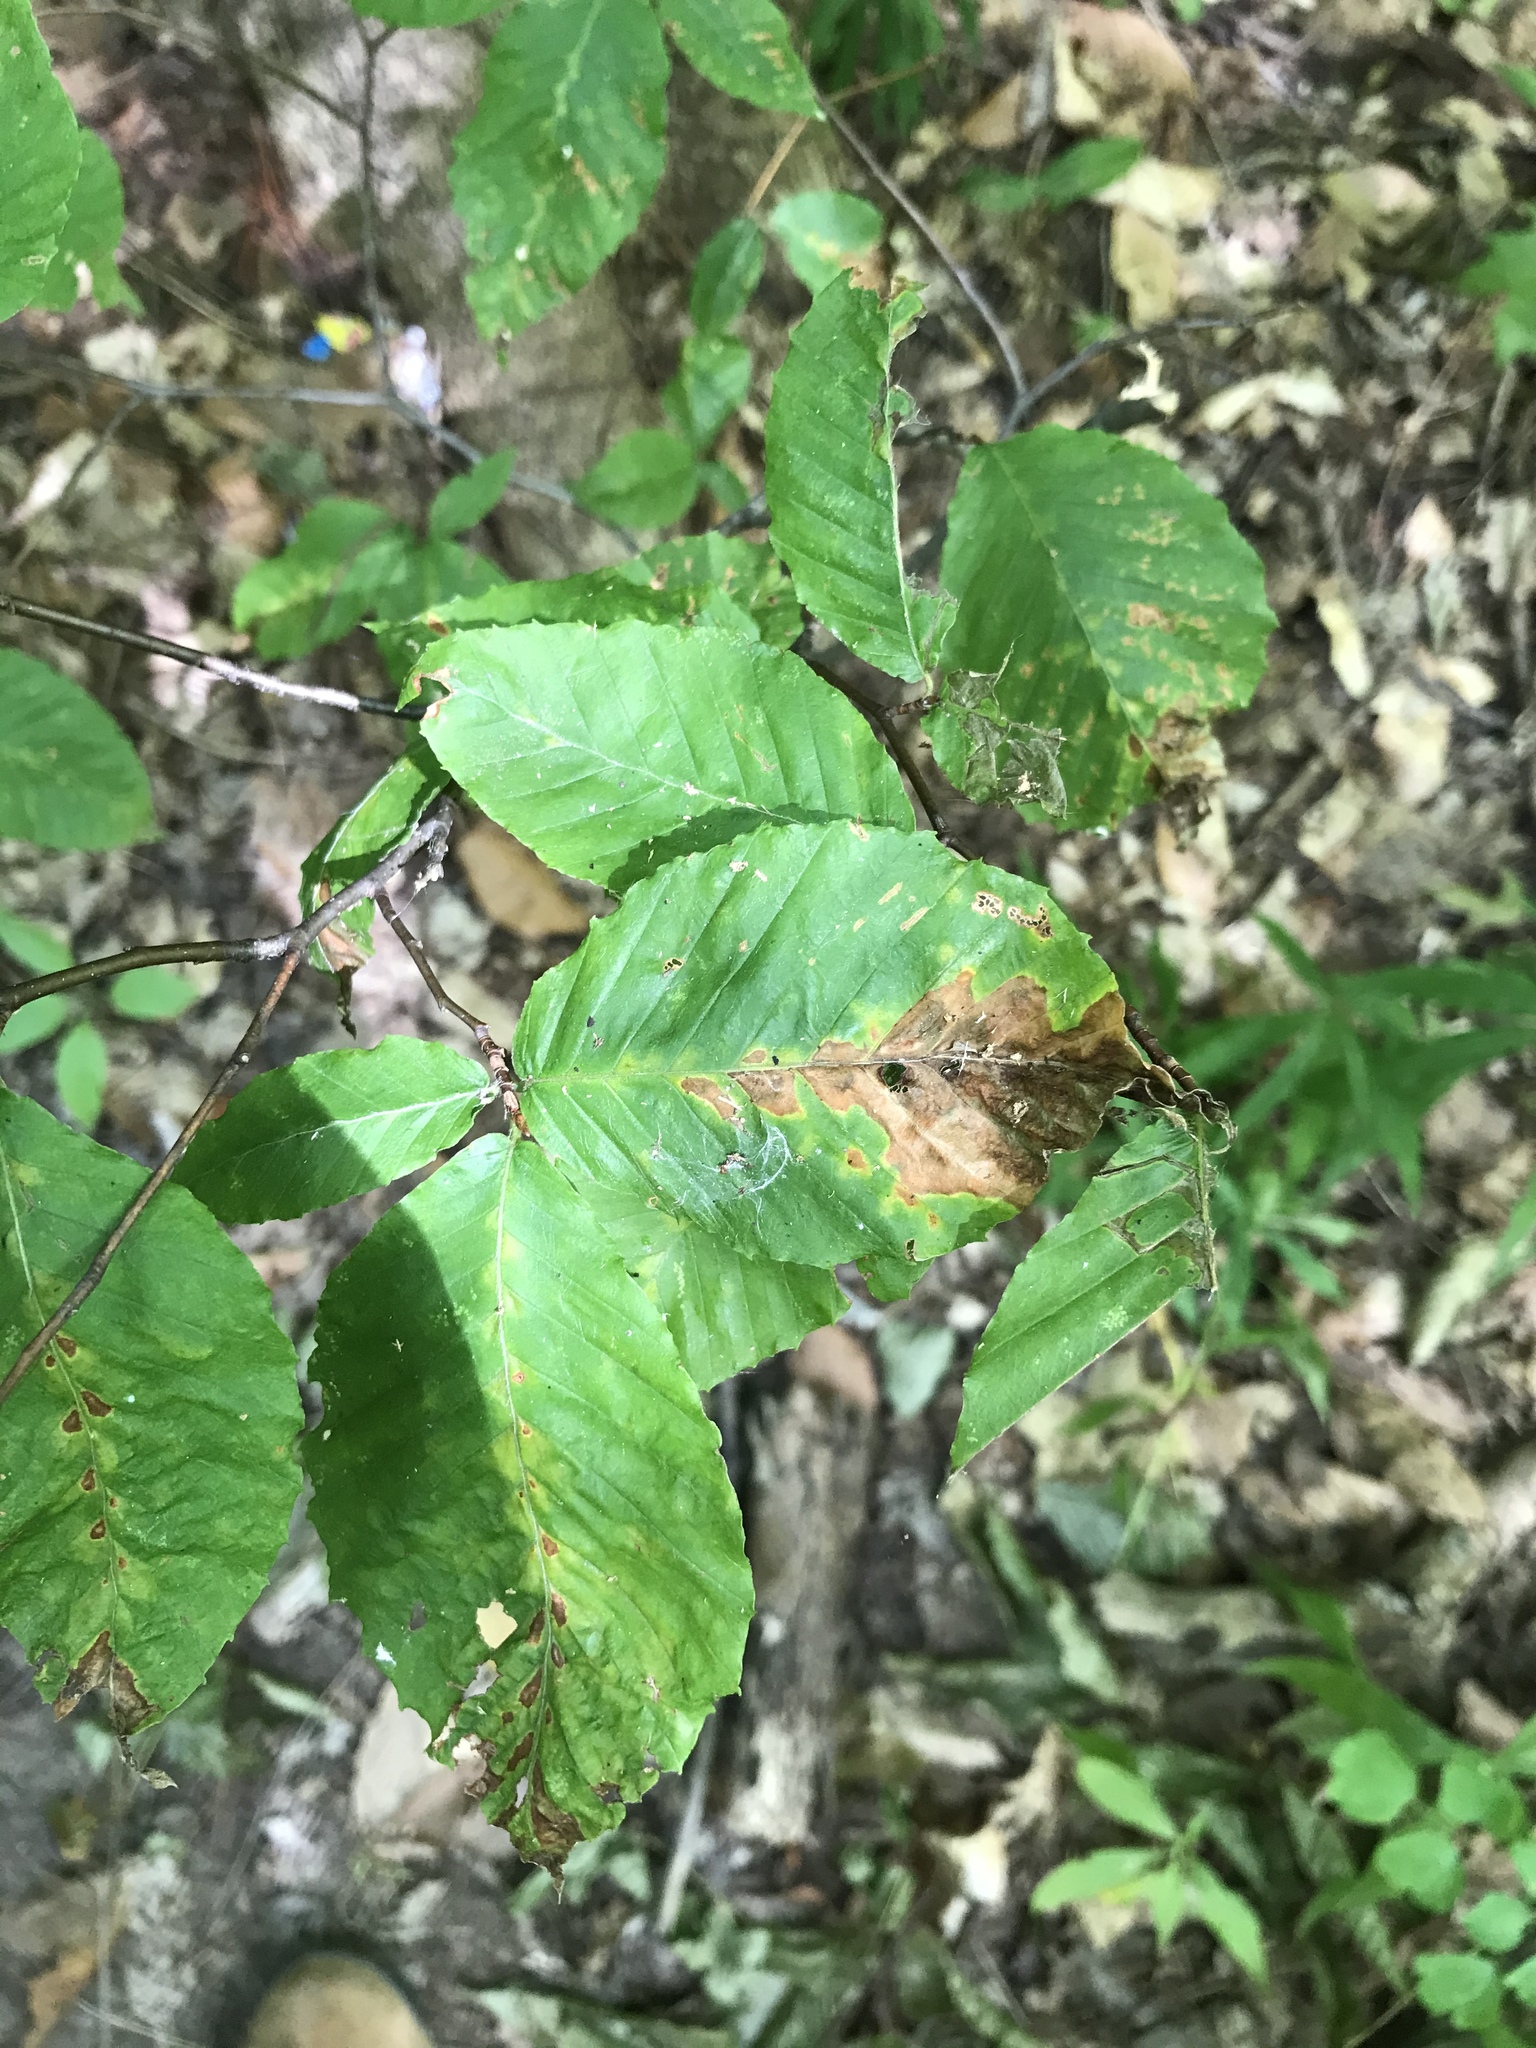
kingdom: Plantae
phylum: Tracheophyta
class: Magnoliopsida
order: Fagales
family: Fagaceae
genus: Fagus
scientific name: Fagus grandifolia
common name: American beech
